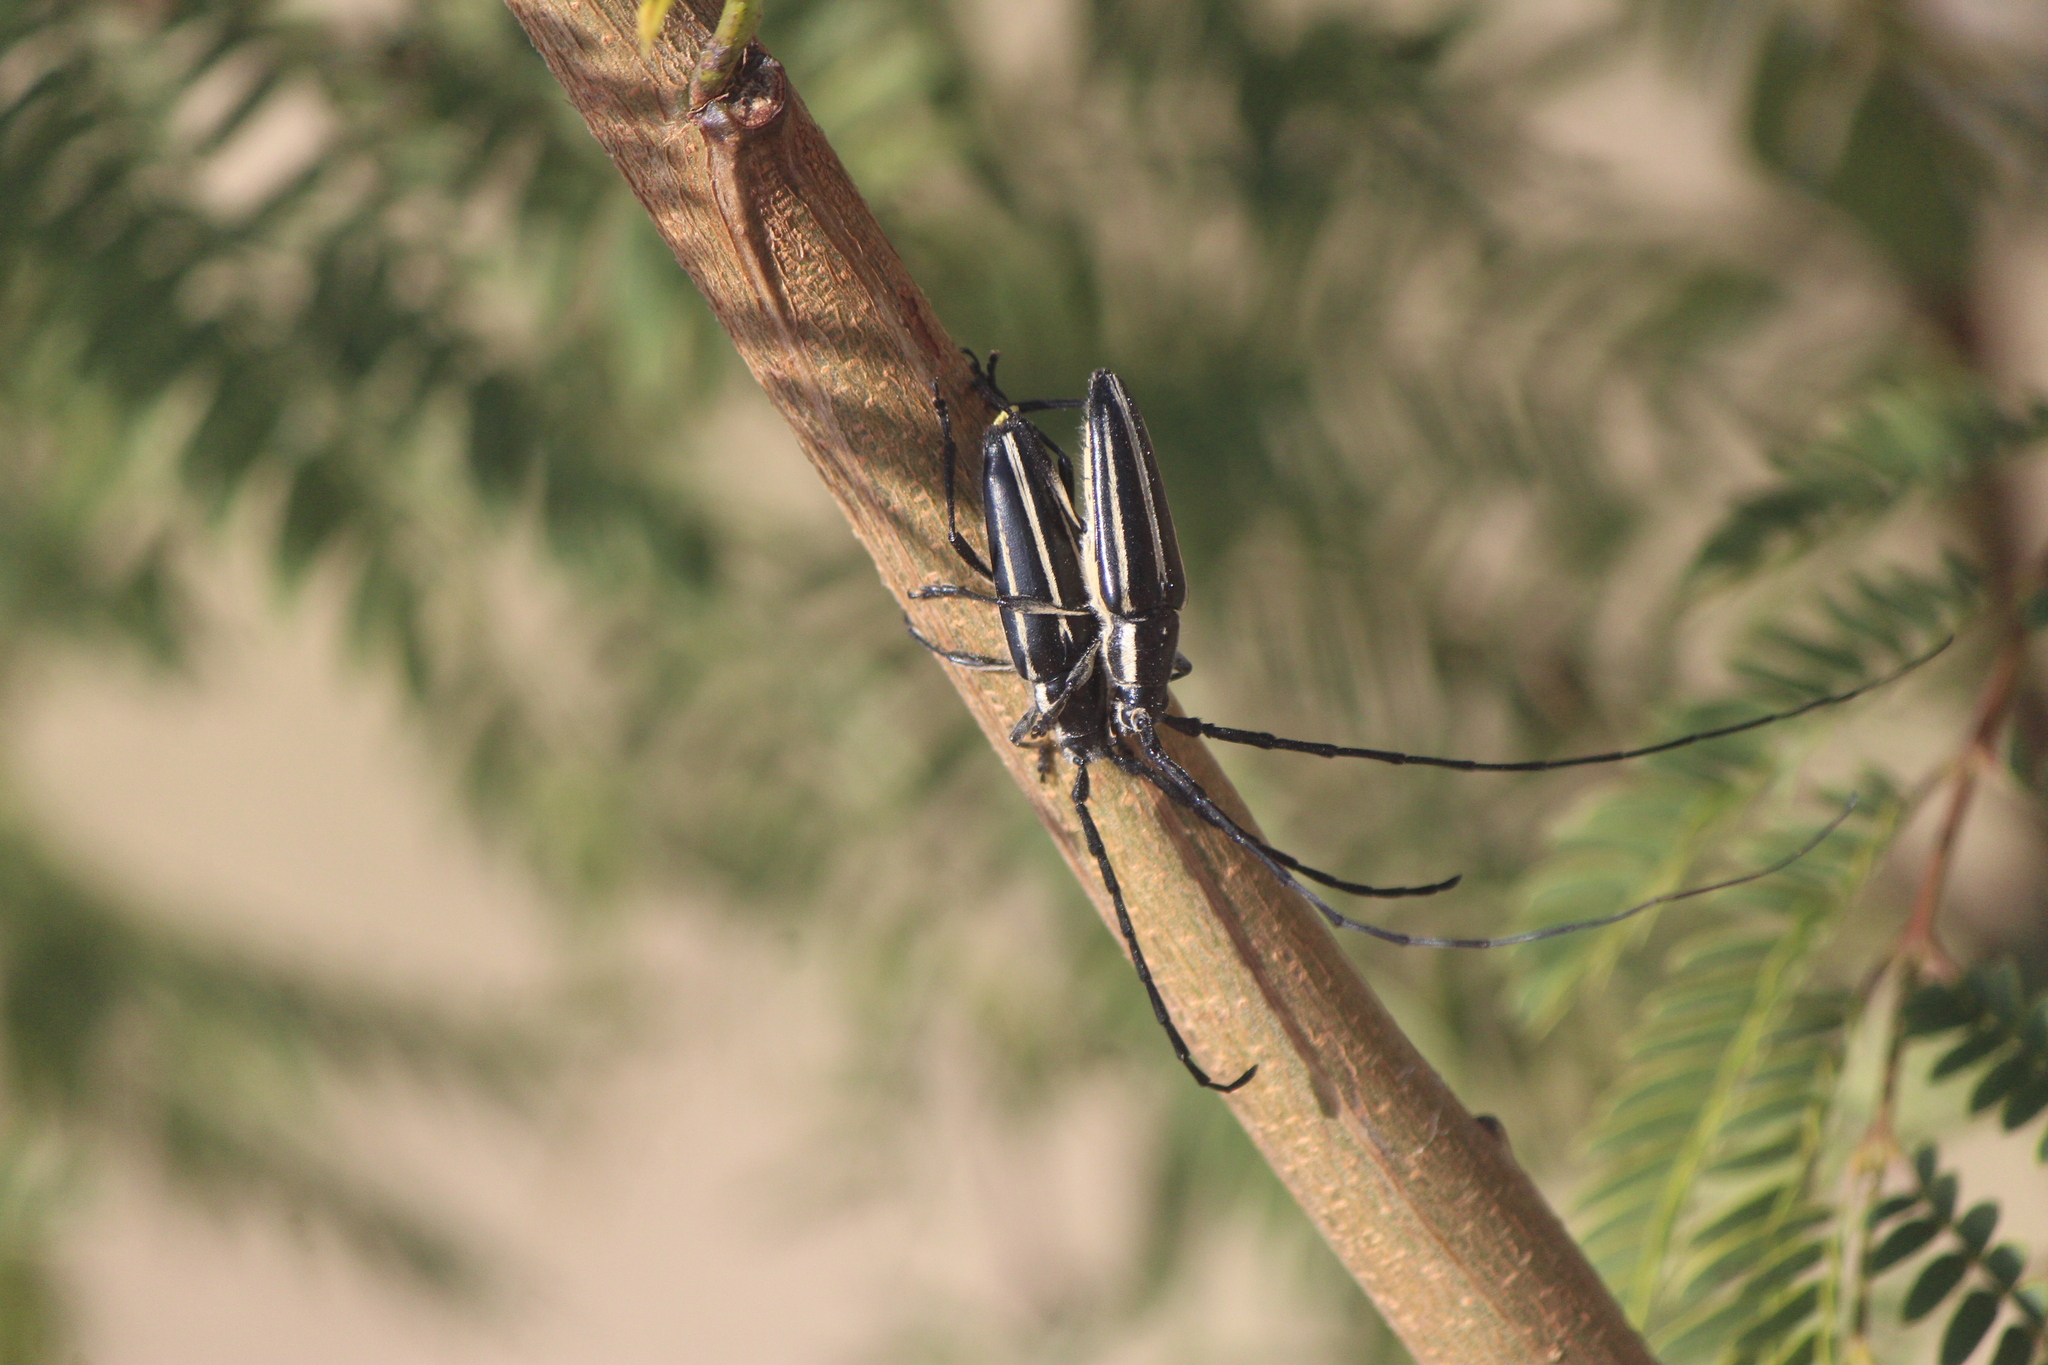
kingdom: Animalia
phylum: Arthropoda
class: Insecta
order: Coleoptera
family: Cerambycidae
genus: Sphaenothecus
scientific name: Sphaenothecus trilineatus
